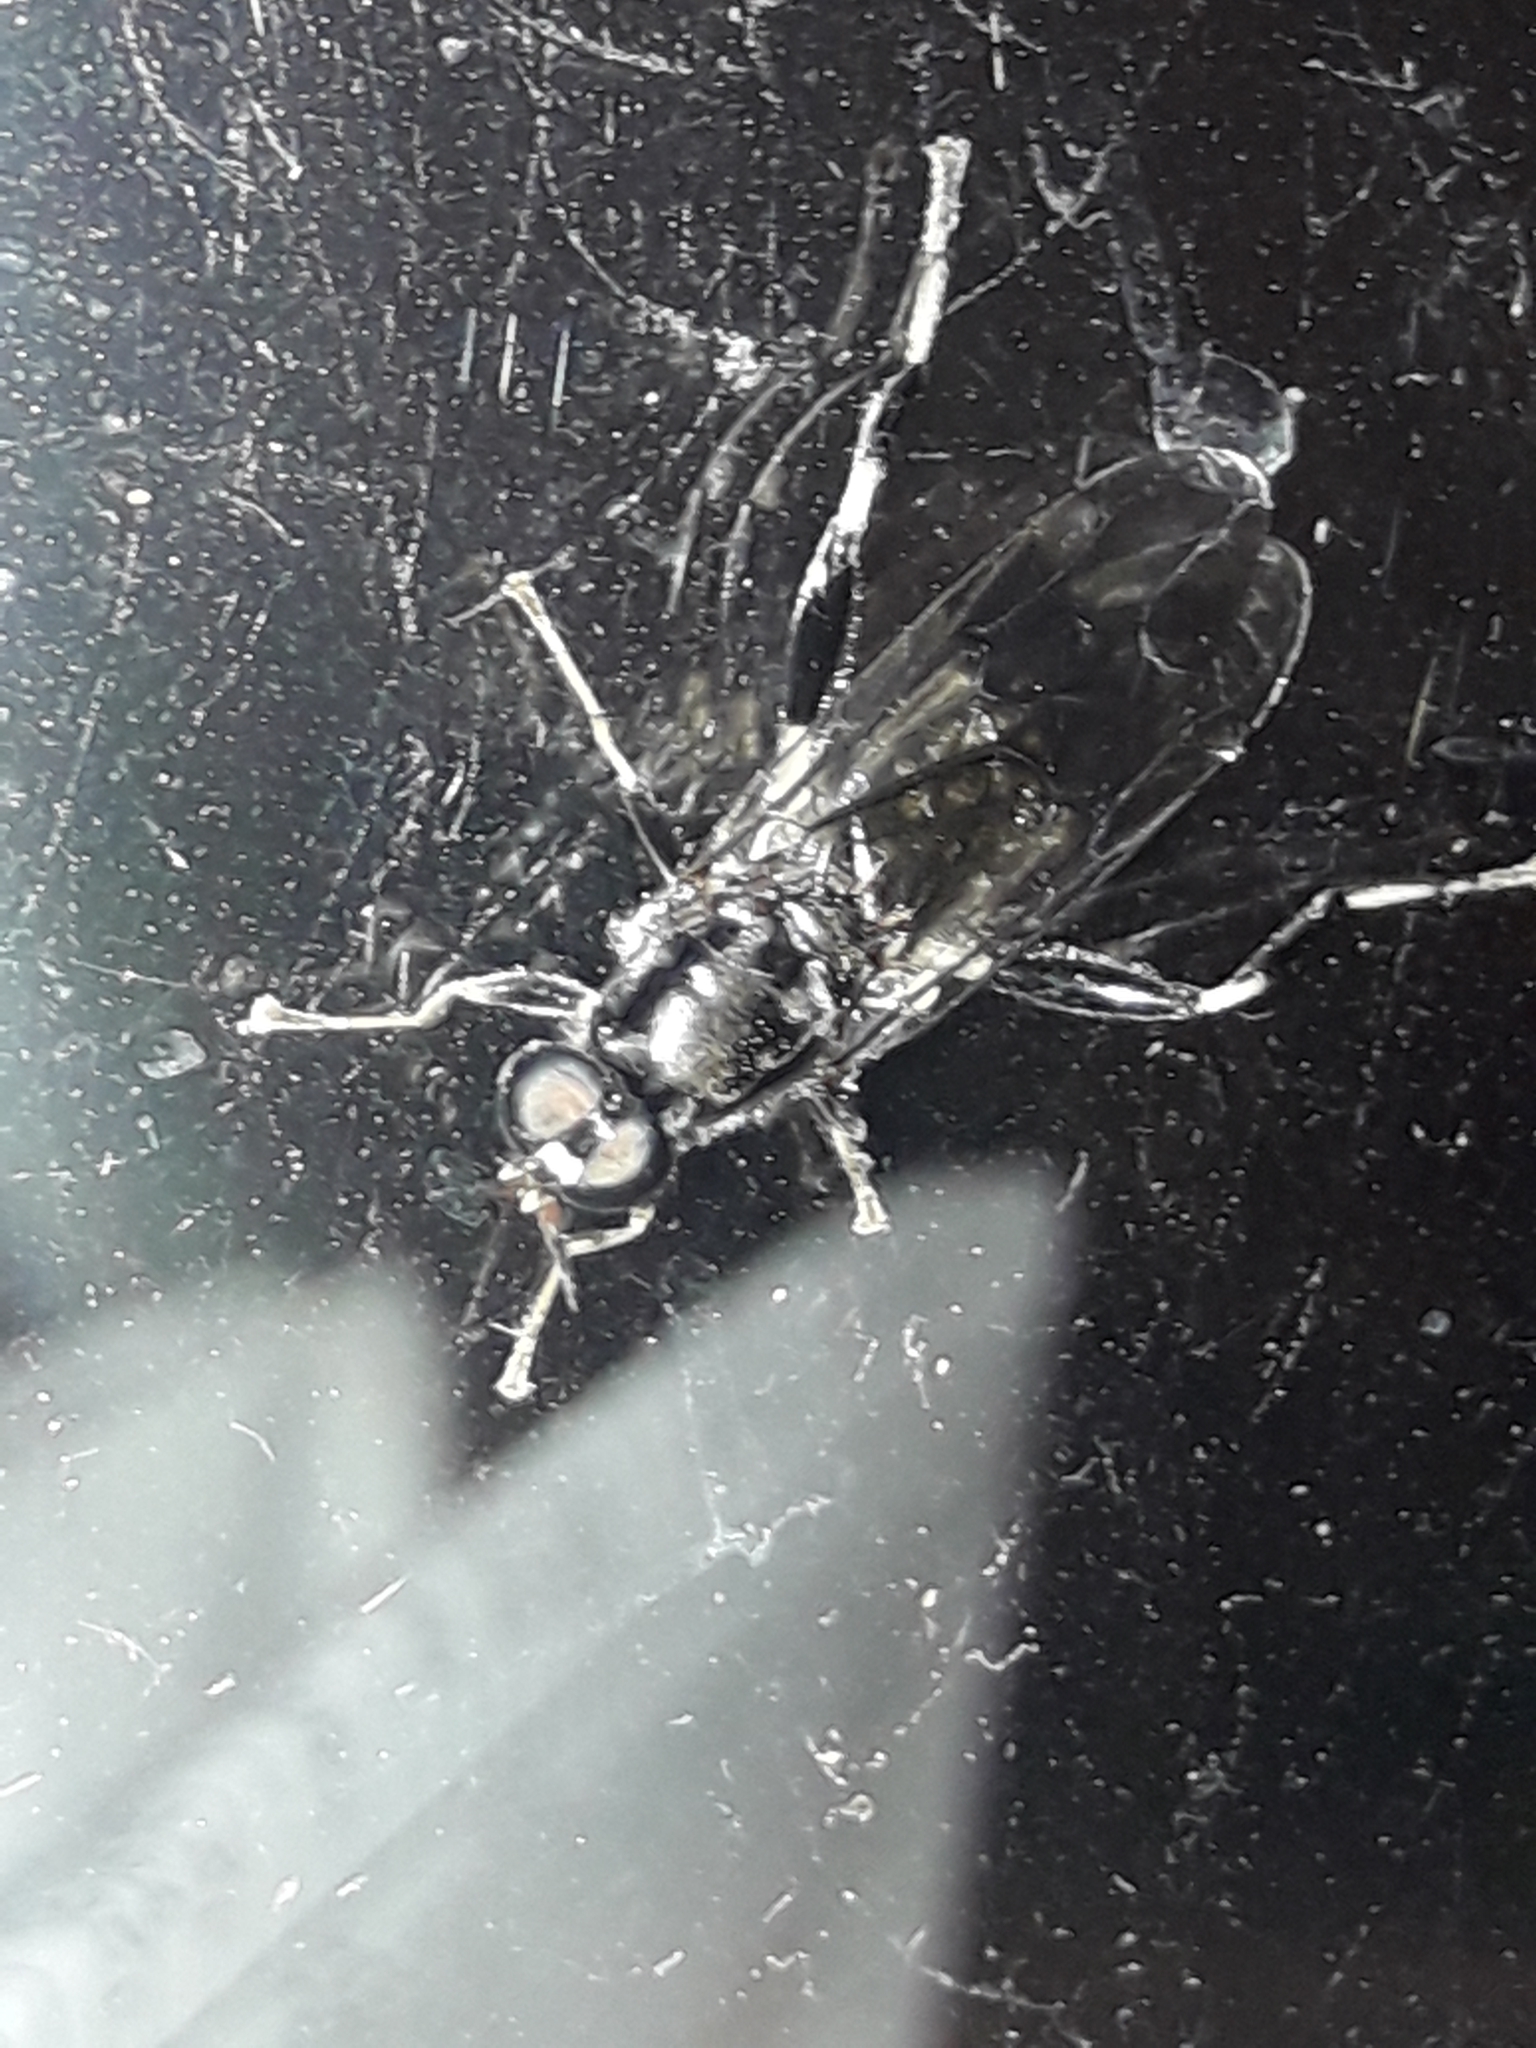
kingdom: Animalia
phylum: Arthropoda
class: Insecta
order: Diptera
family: Stratiomyidae
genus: Exaireta
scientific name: Exaireta spinigera
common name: Blue soldier fly
